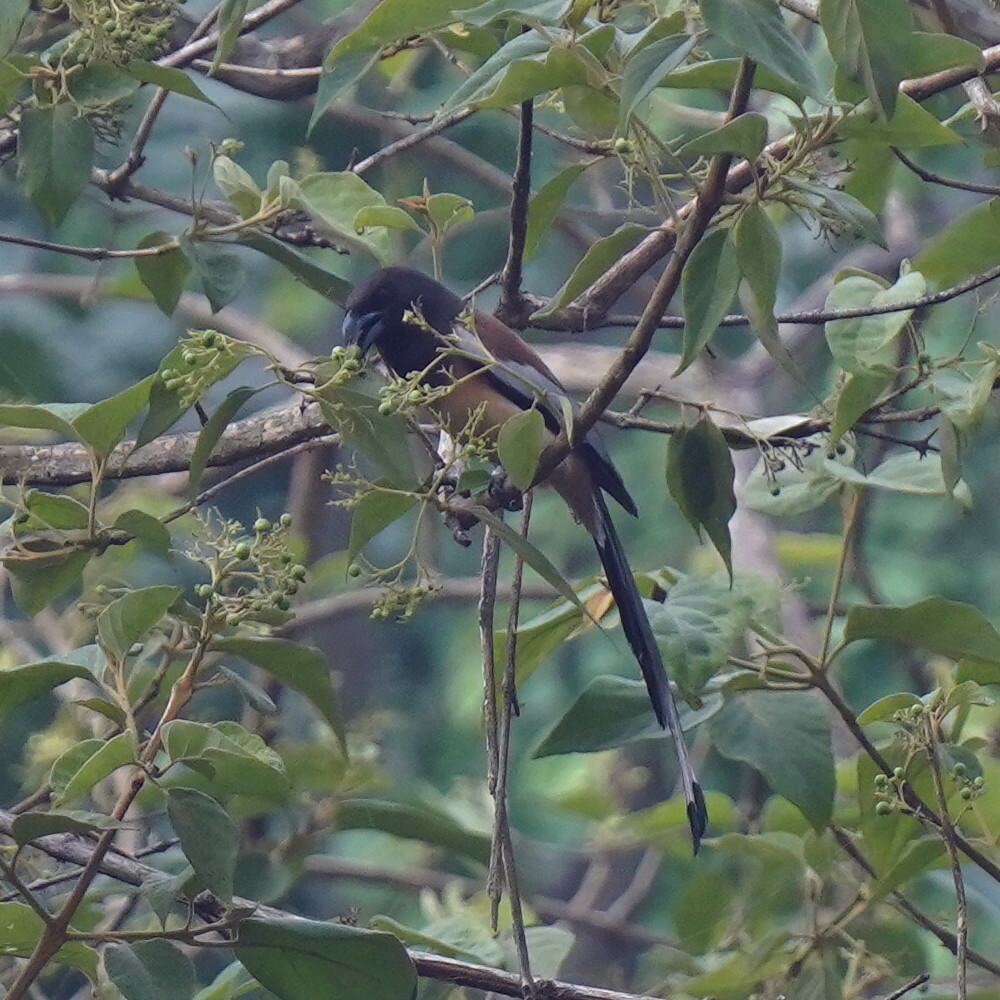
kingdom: Animalia
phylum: Chordata
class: Aves
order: Passeriformes
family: Corvidae
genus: Dendrocitta
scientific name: Dendrocitta vagabunda
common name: Rufous treepie
